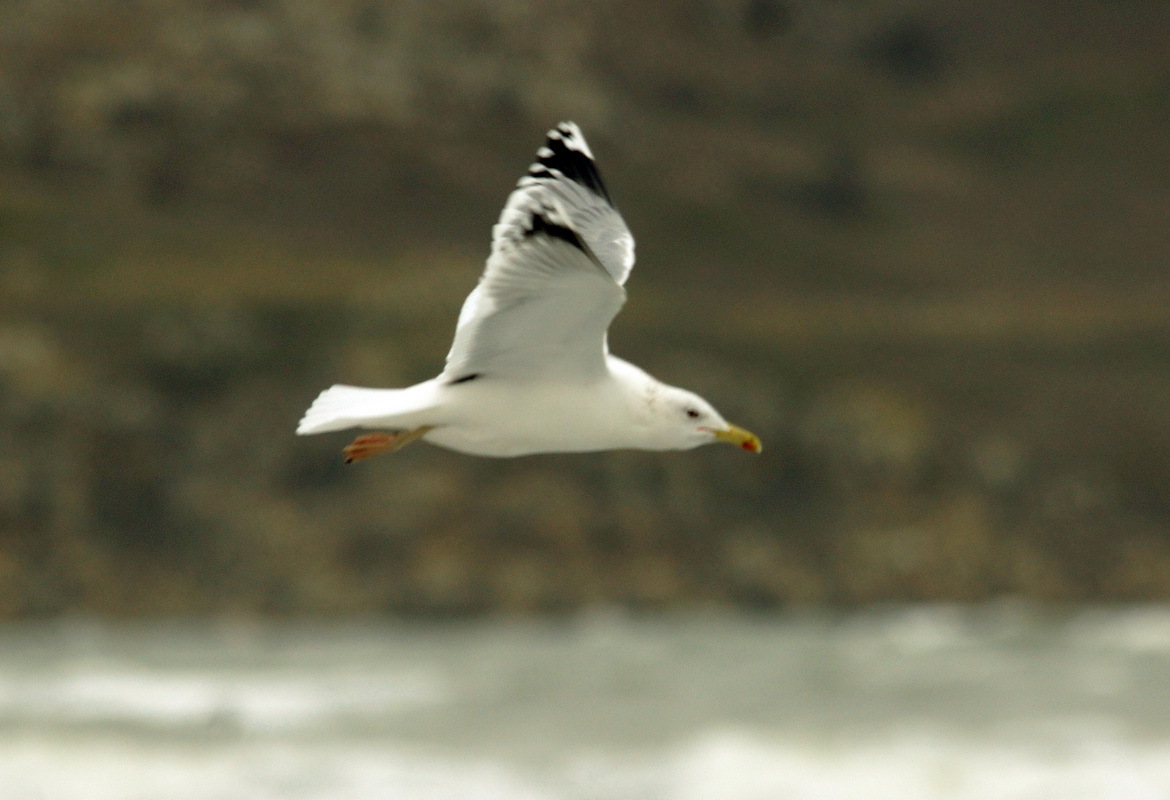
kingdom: Animalia
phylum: Chordata
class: Aves
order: Charadriiformes
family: Laridae
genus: Larus
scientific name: Larus cachinnans
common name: Caspian gull
